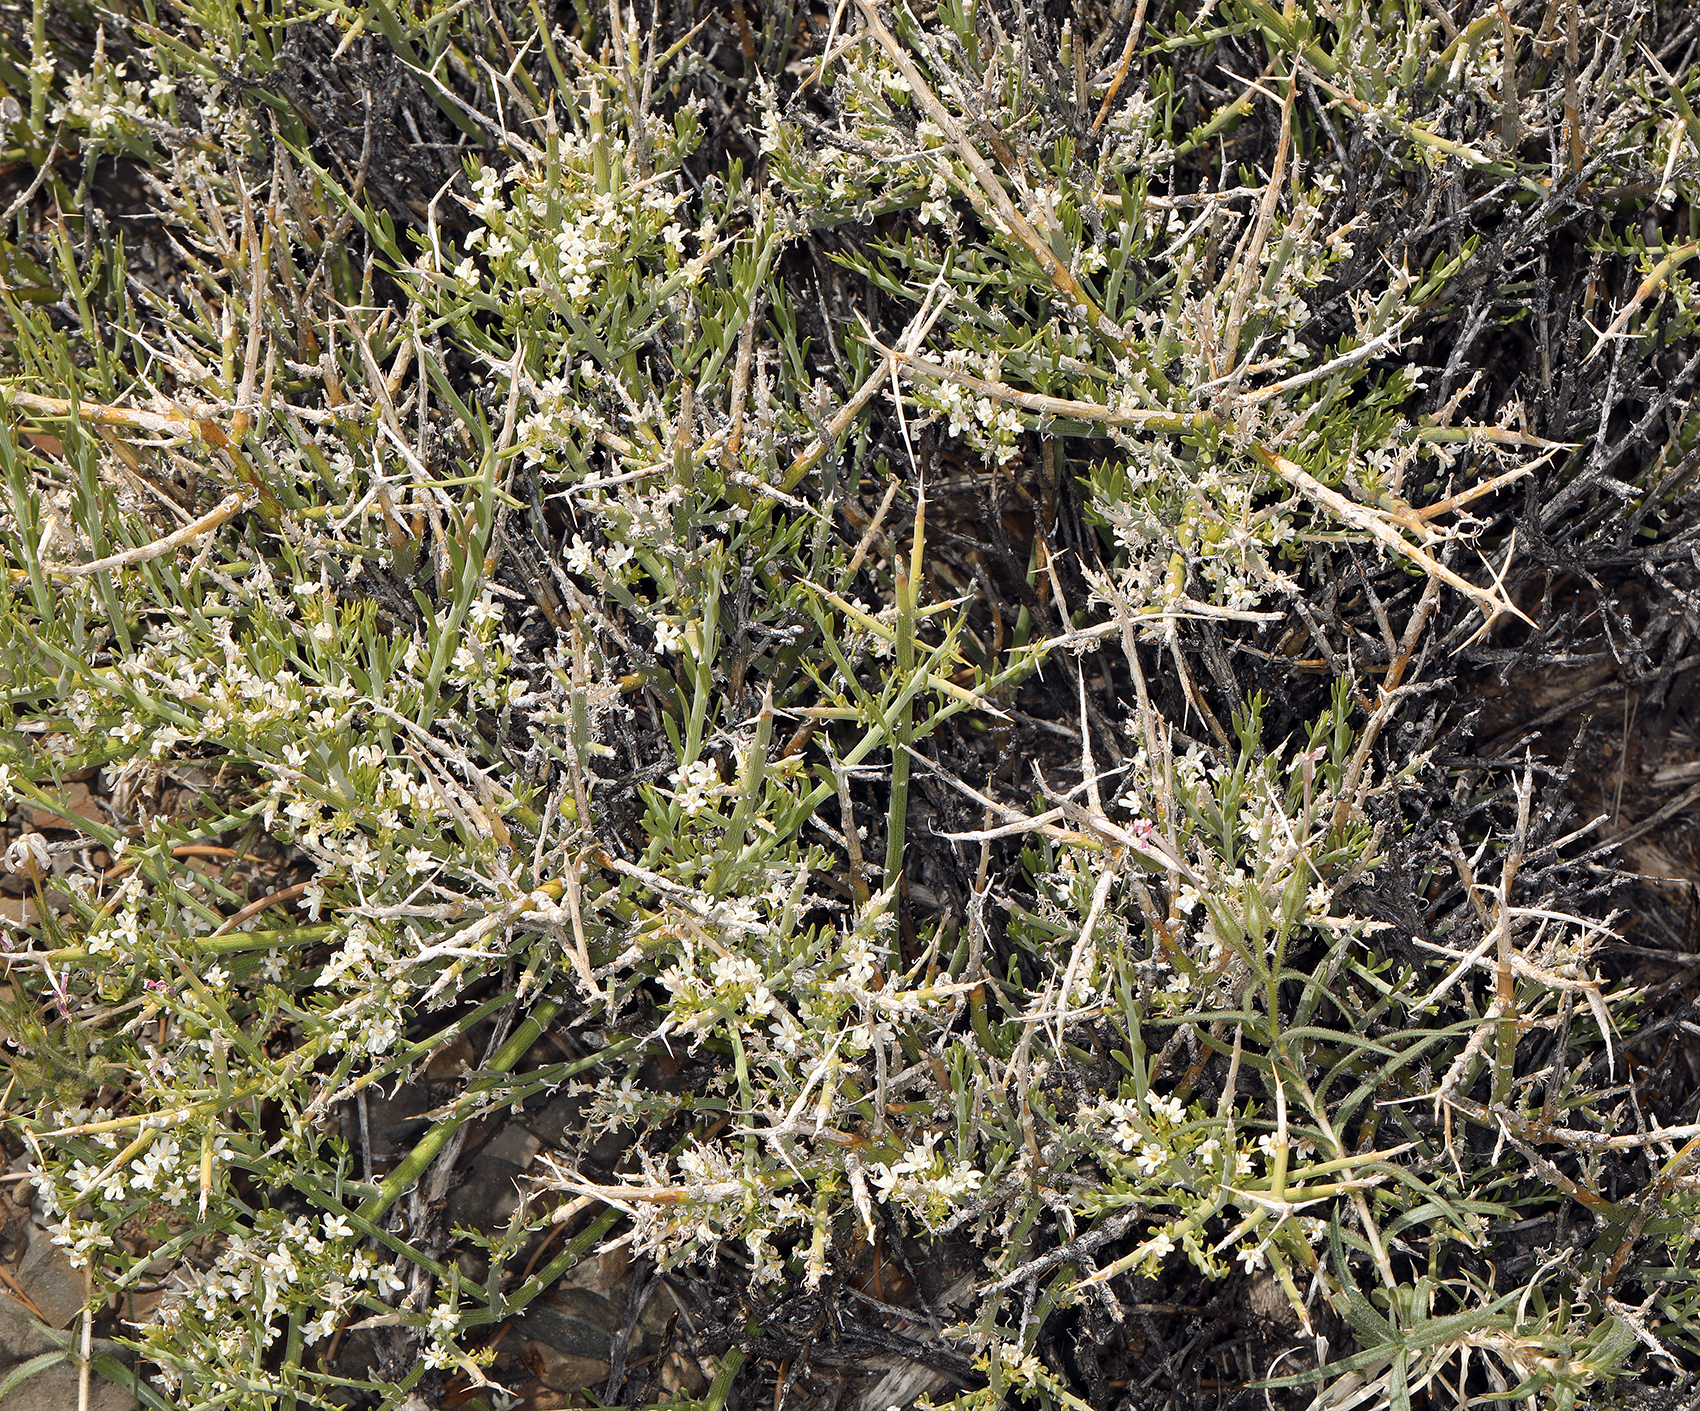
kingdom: Plantae
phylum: Tracheophyta
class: Magnoliopsida
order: Lamiales
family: Oleaceae
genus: Menodora
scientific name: Menodora spinescens
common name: Spiny menodora
